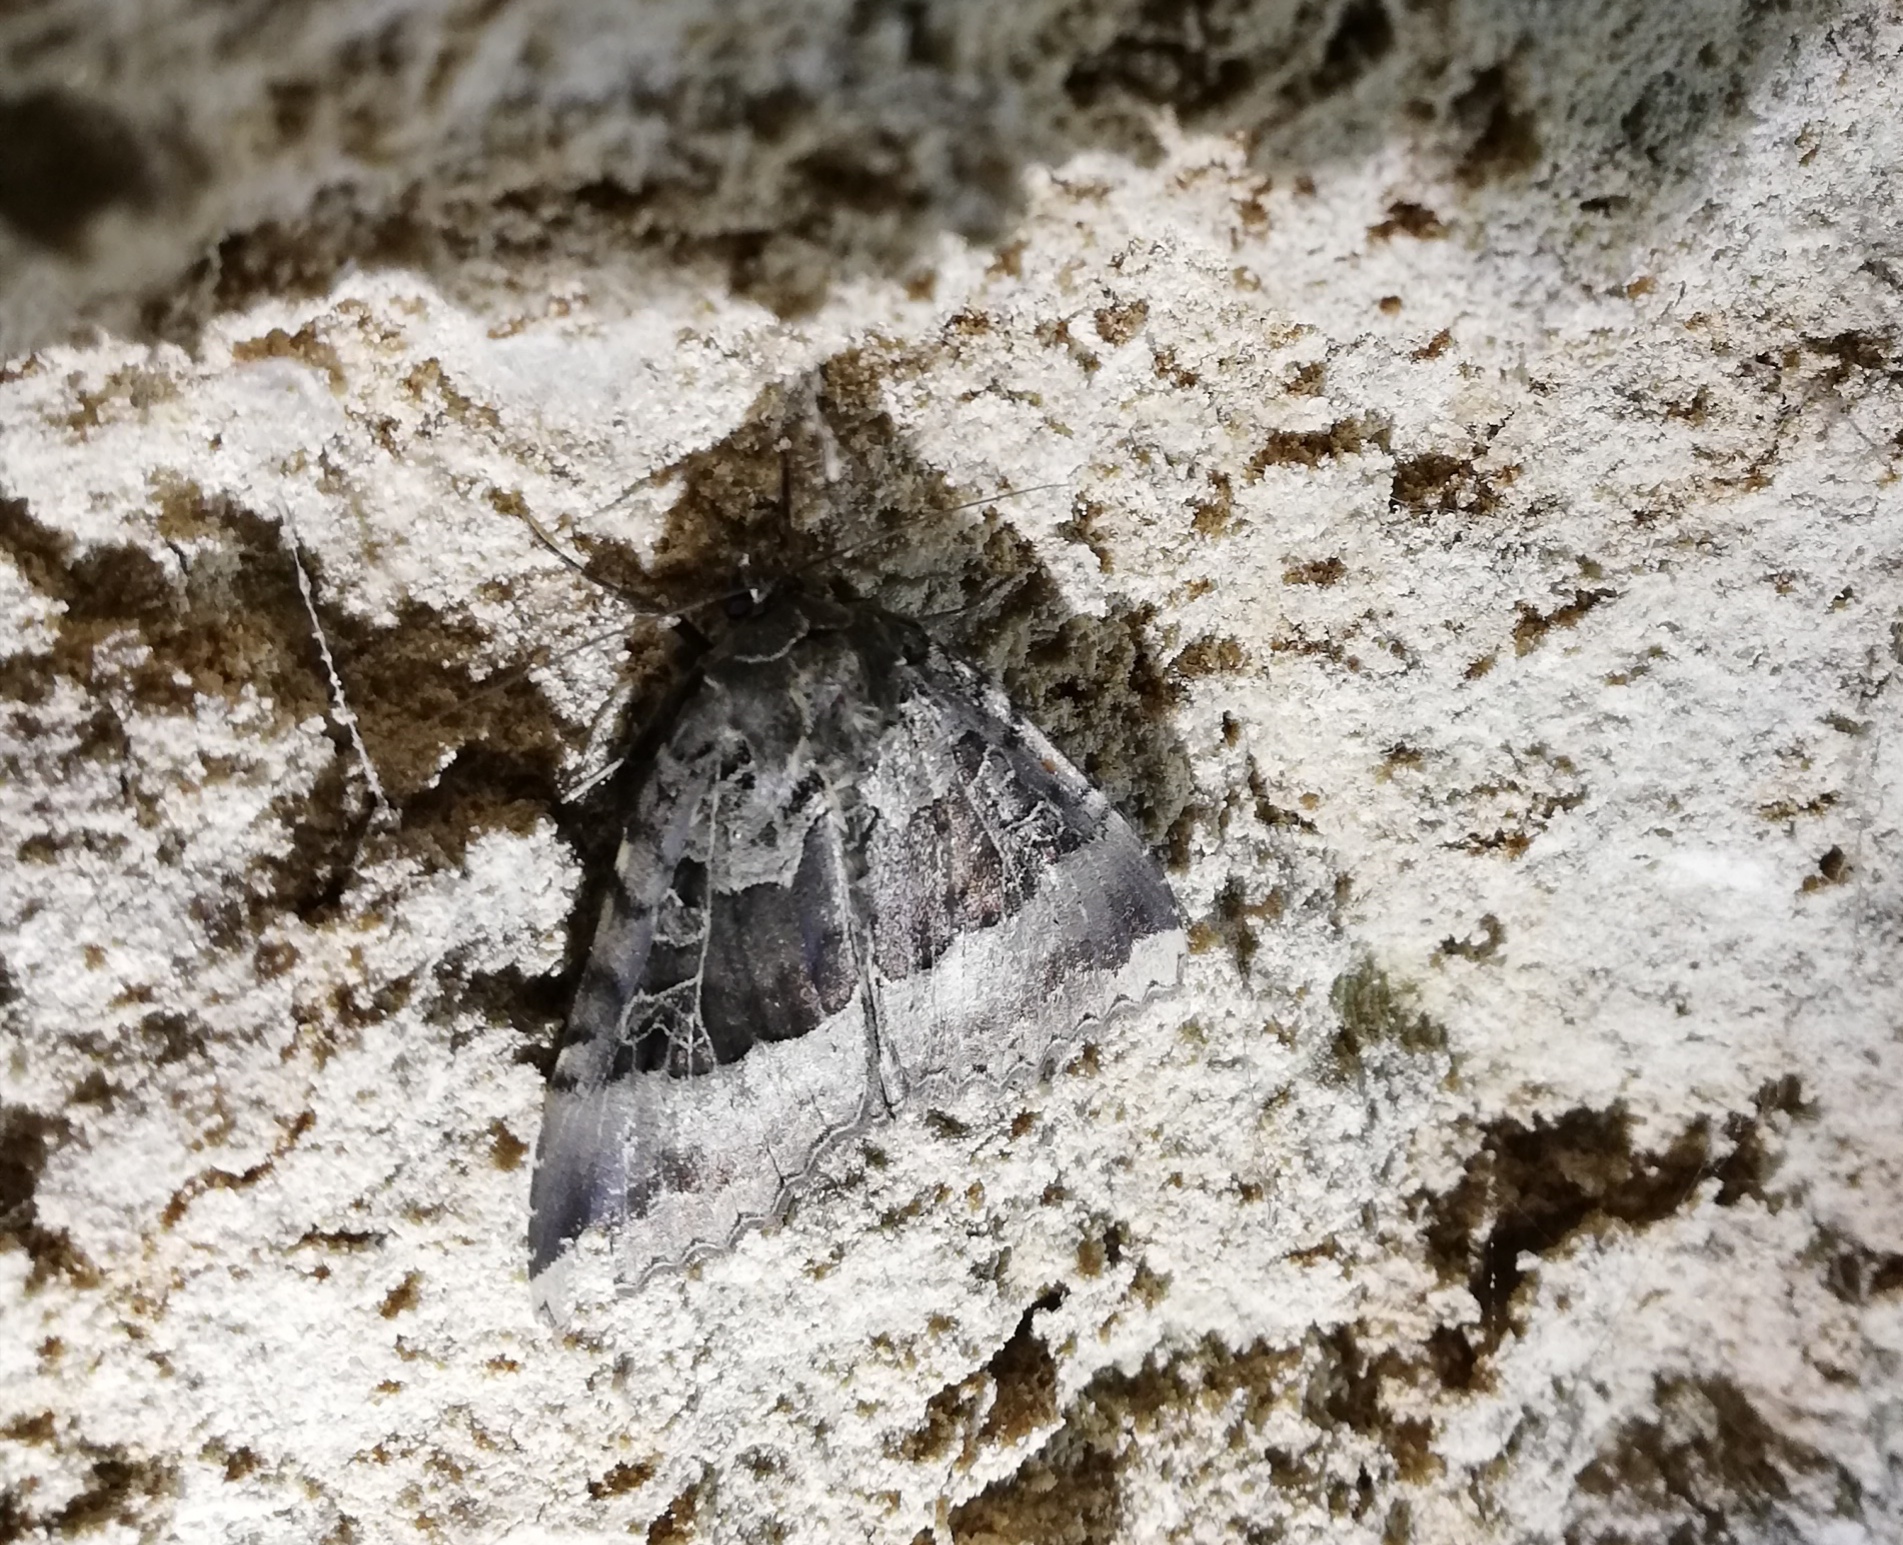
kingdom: Animalia
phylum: Arthropoda
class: Insecta
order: Lepidoptera
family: Noctuidae
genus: Mormo
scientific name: Mormo maura
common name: Old lady
